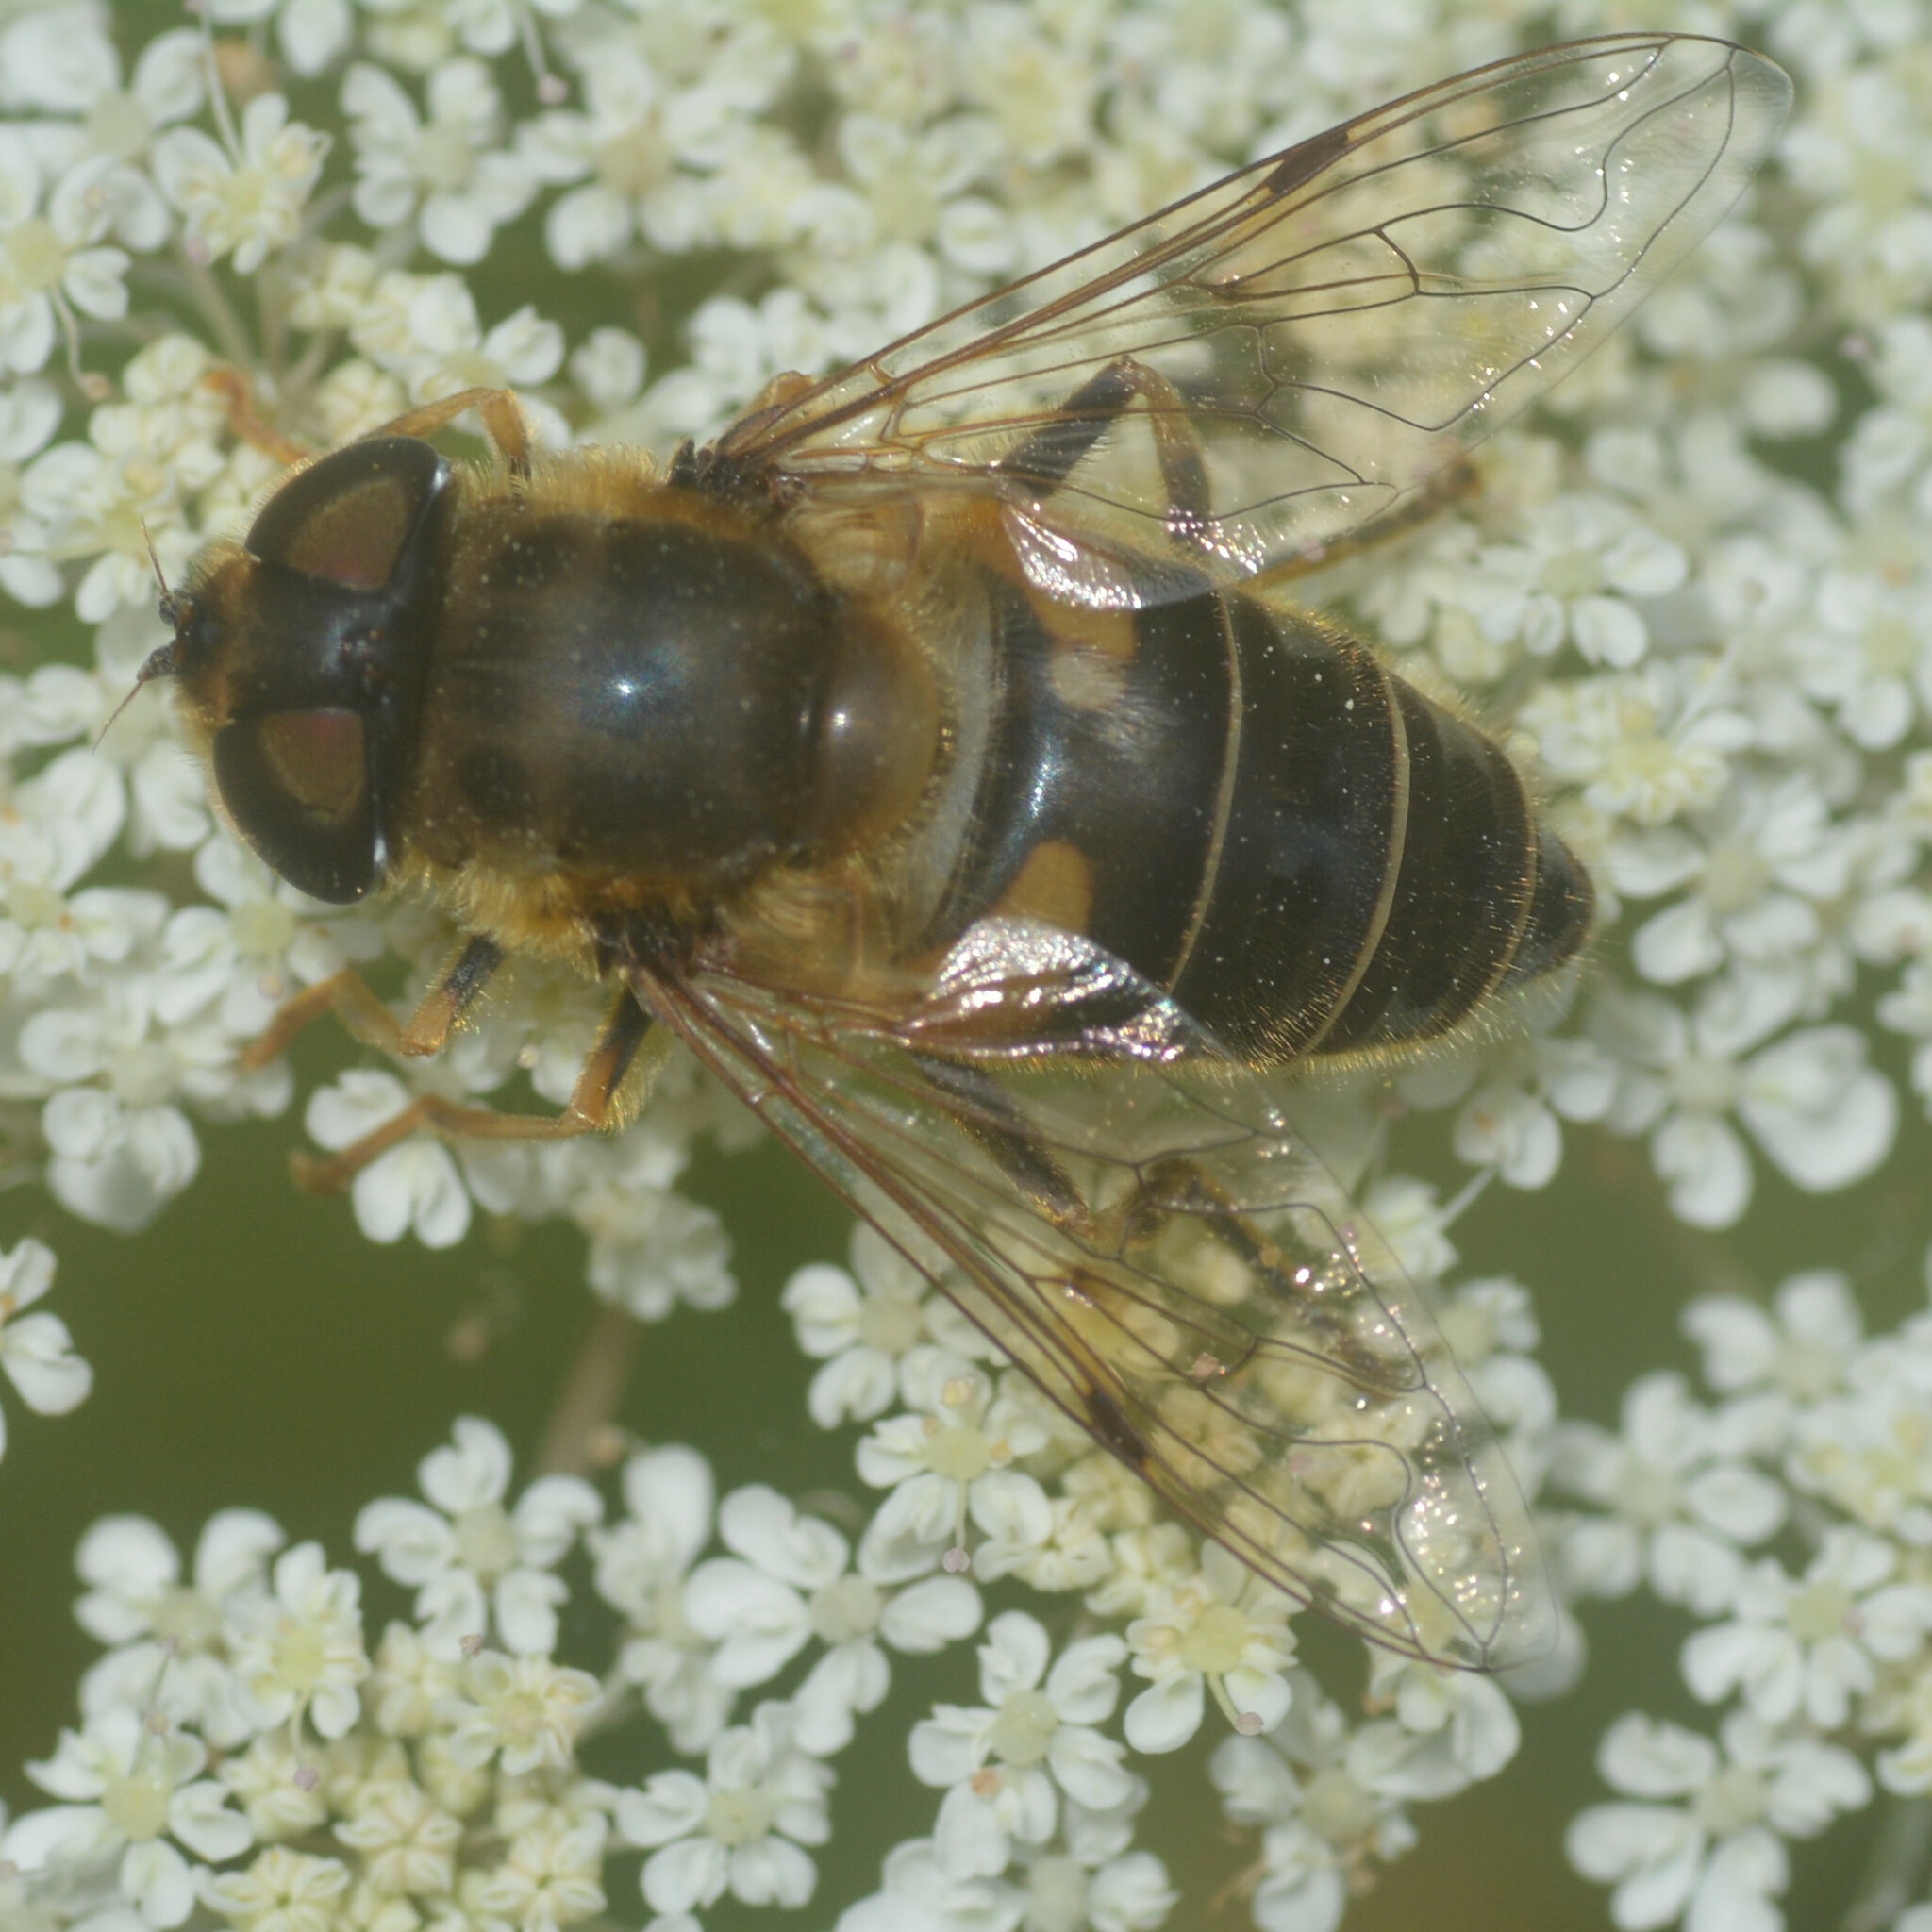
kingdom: Animalia
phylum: Arthropoda
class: Insecta
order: Diptera
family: Syrphidae
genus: Eristalis
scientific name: Eristalis pertinax
